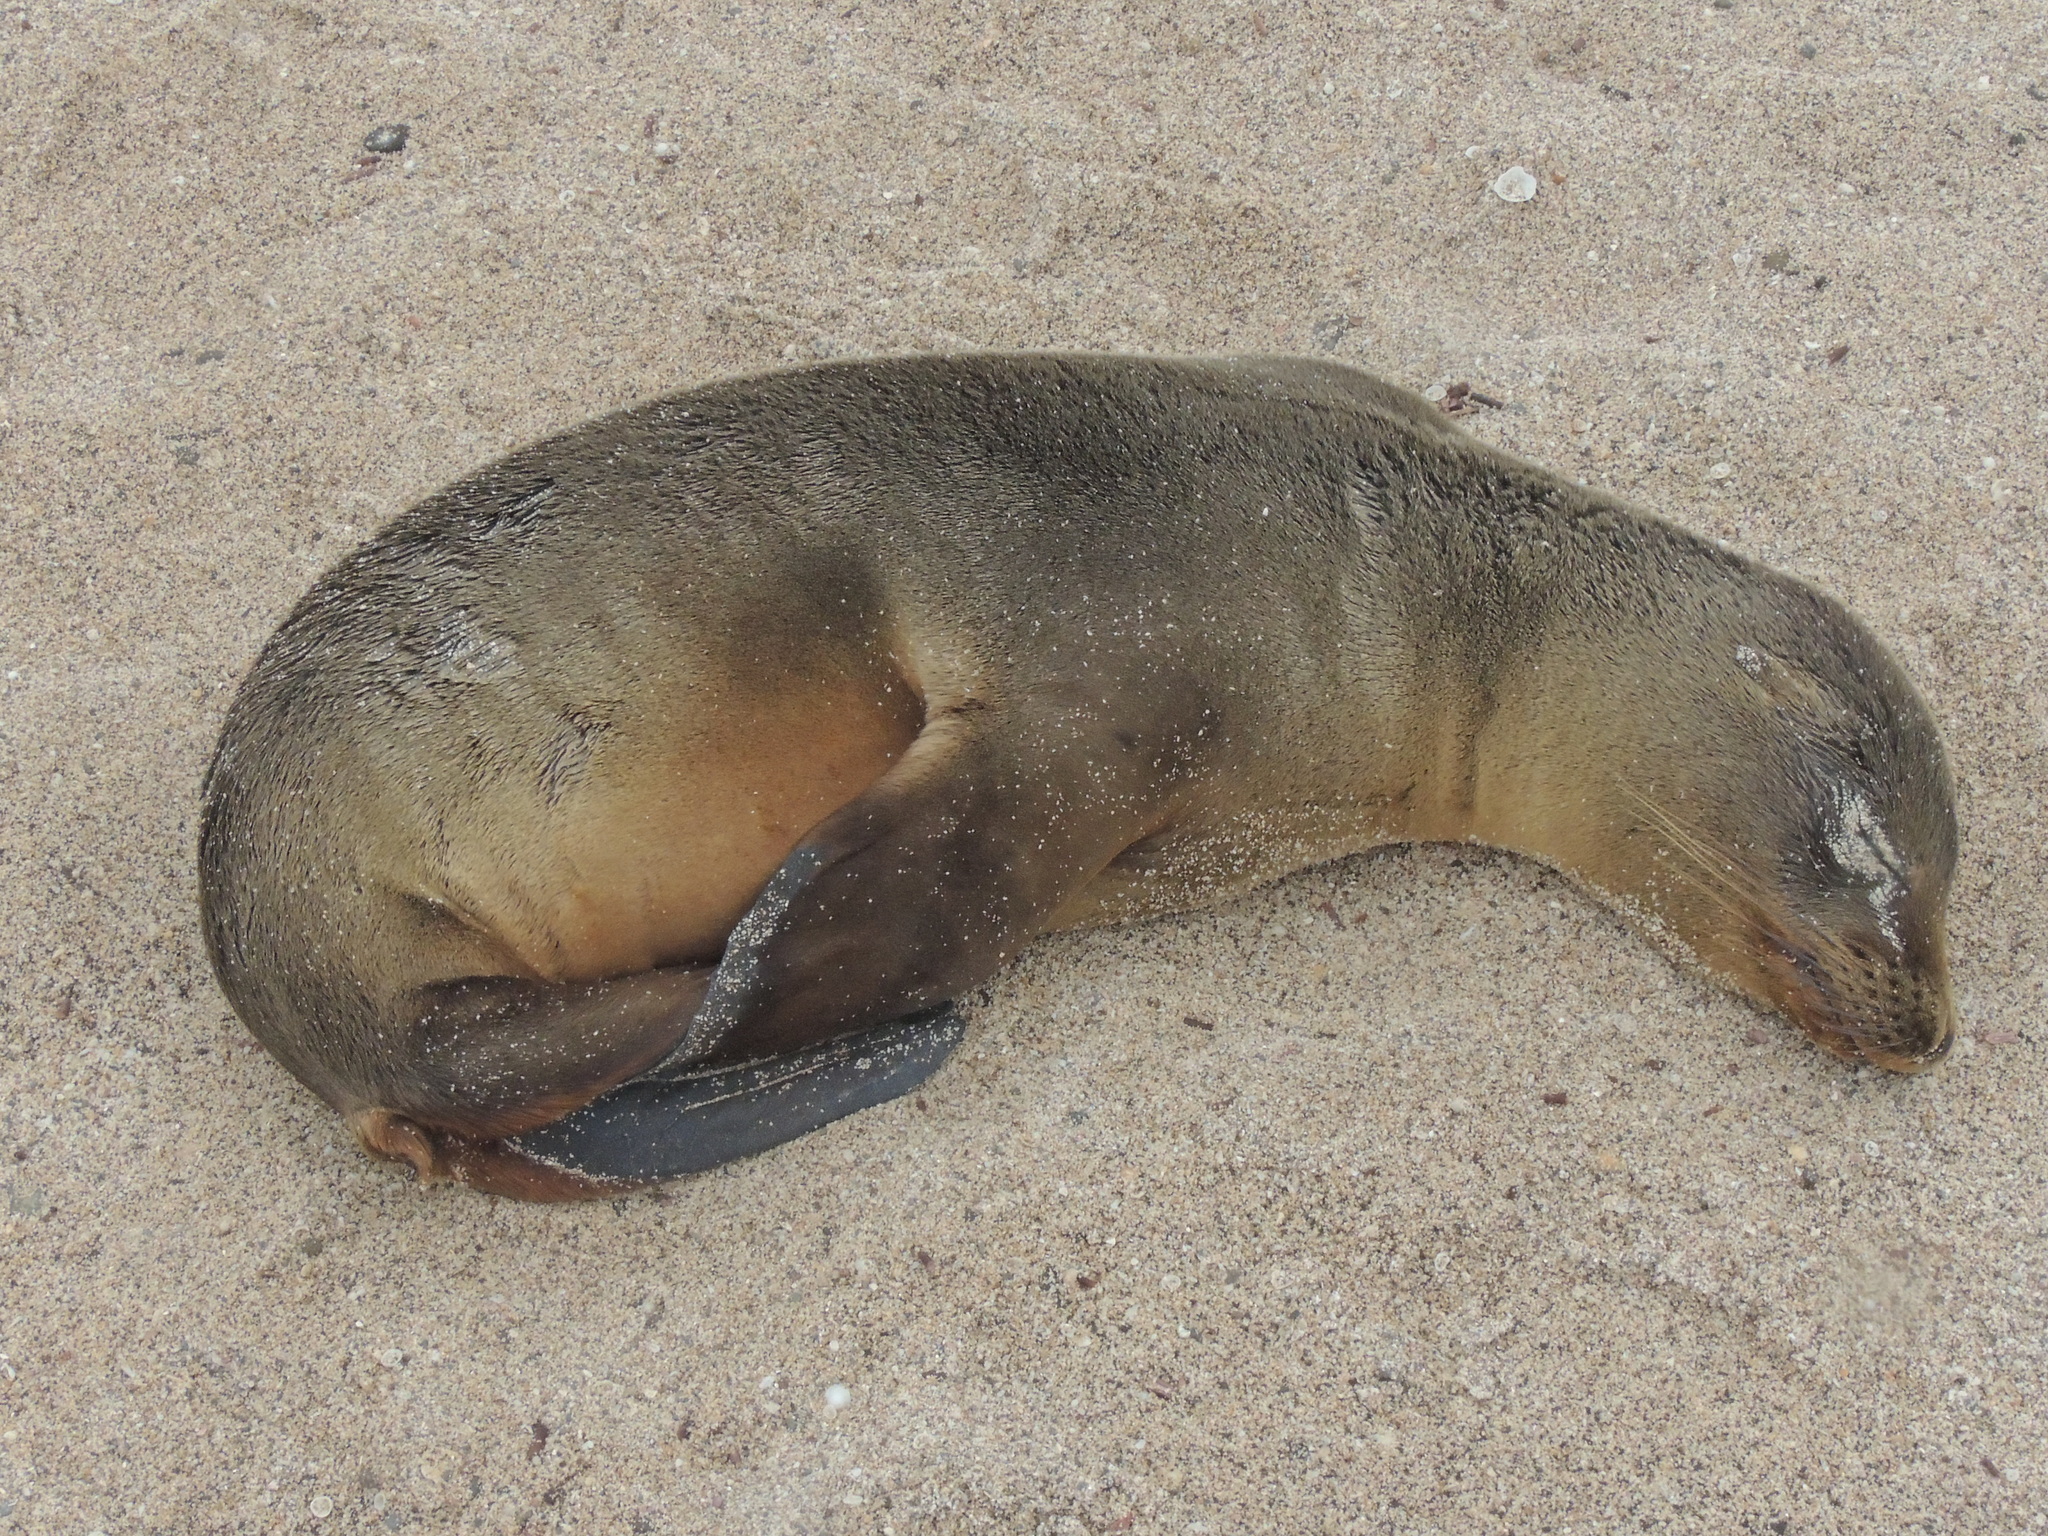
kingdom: Animalia
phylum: Chordata
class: Mammalia
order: Carnivora
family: Otariidae
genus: Zalophus
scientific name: Zalophus wollebaeki
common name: Galapagos sea lion
